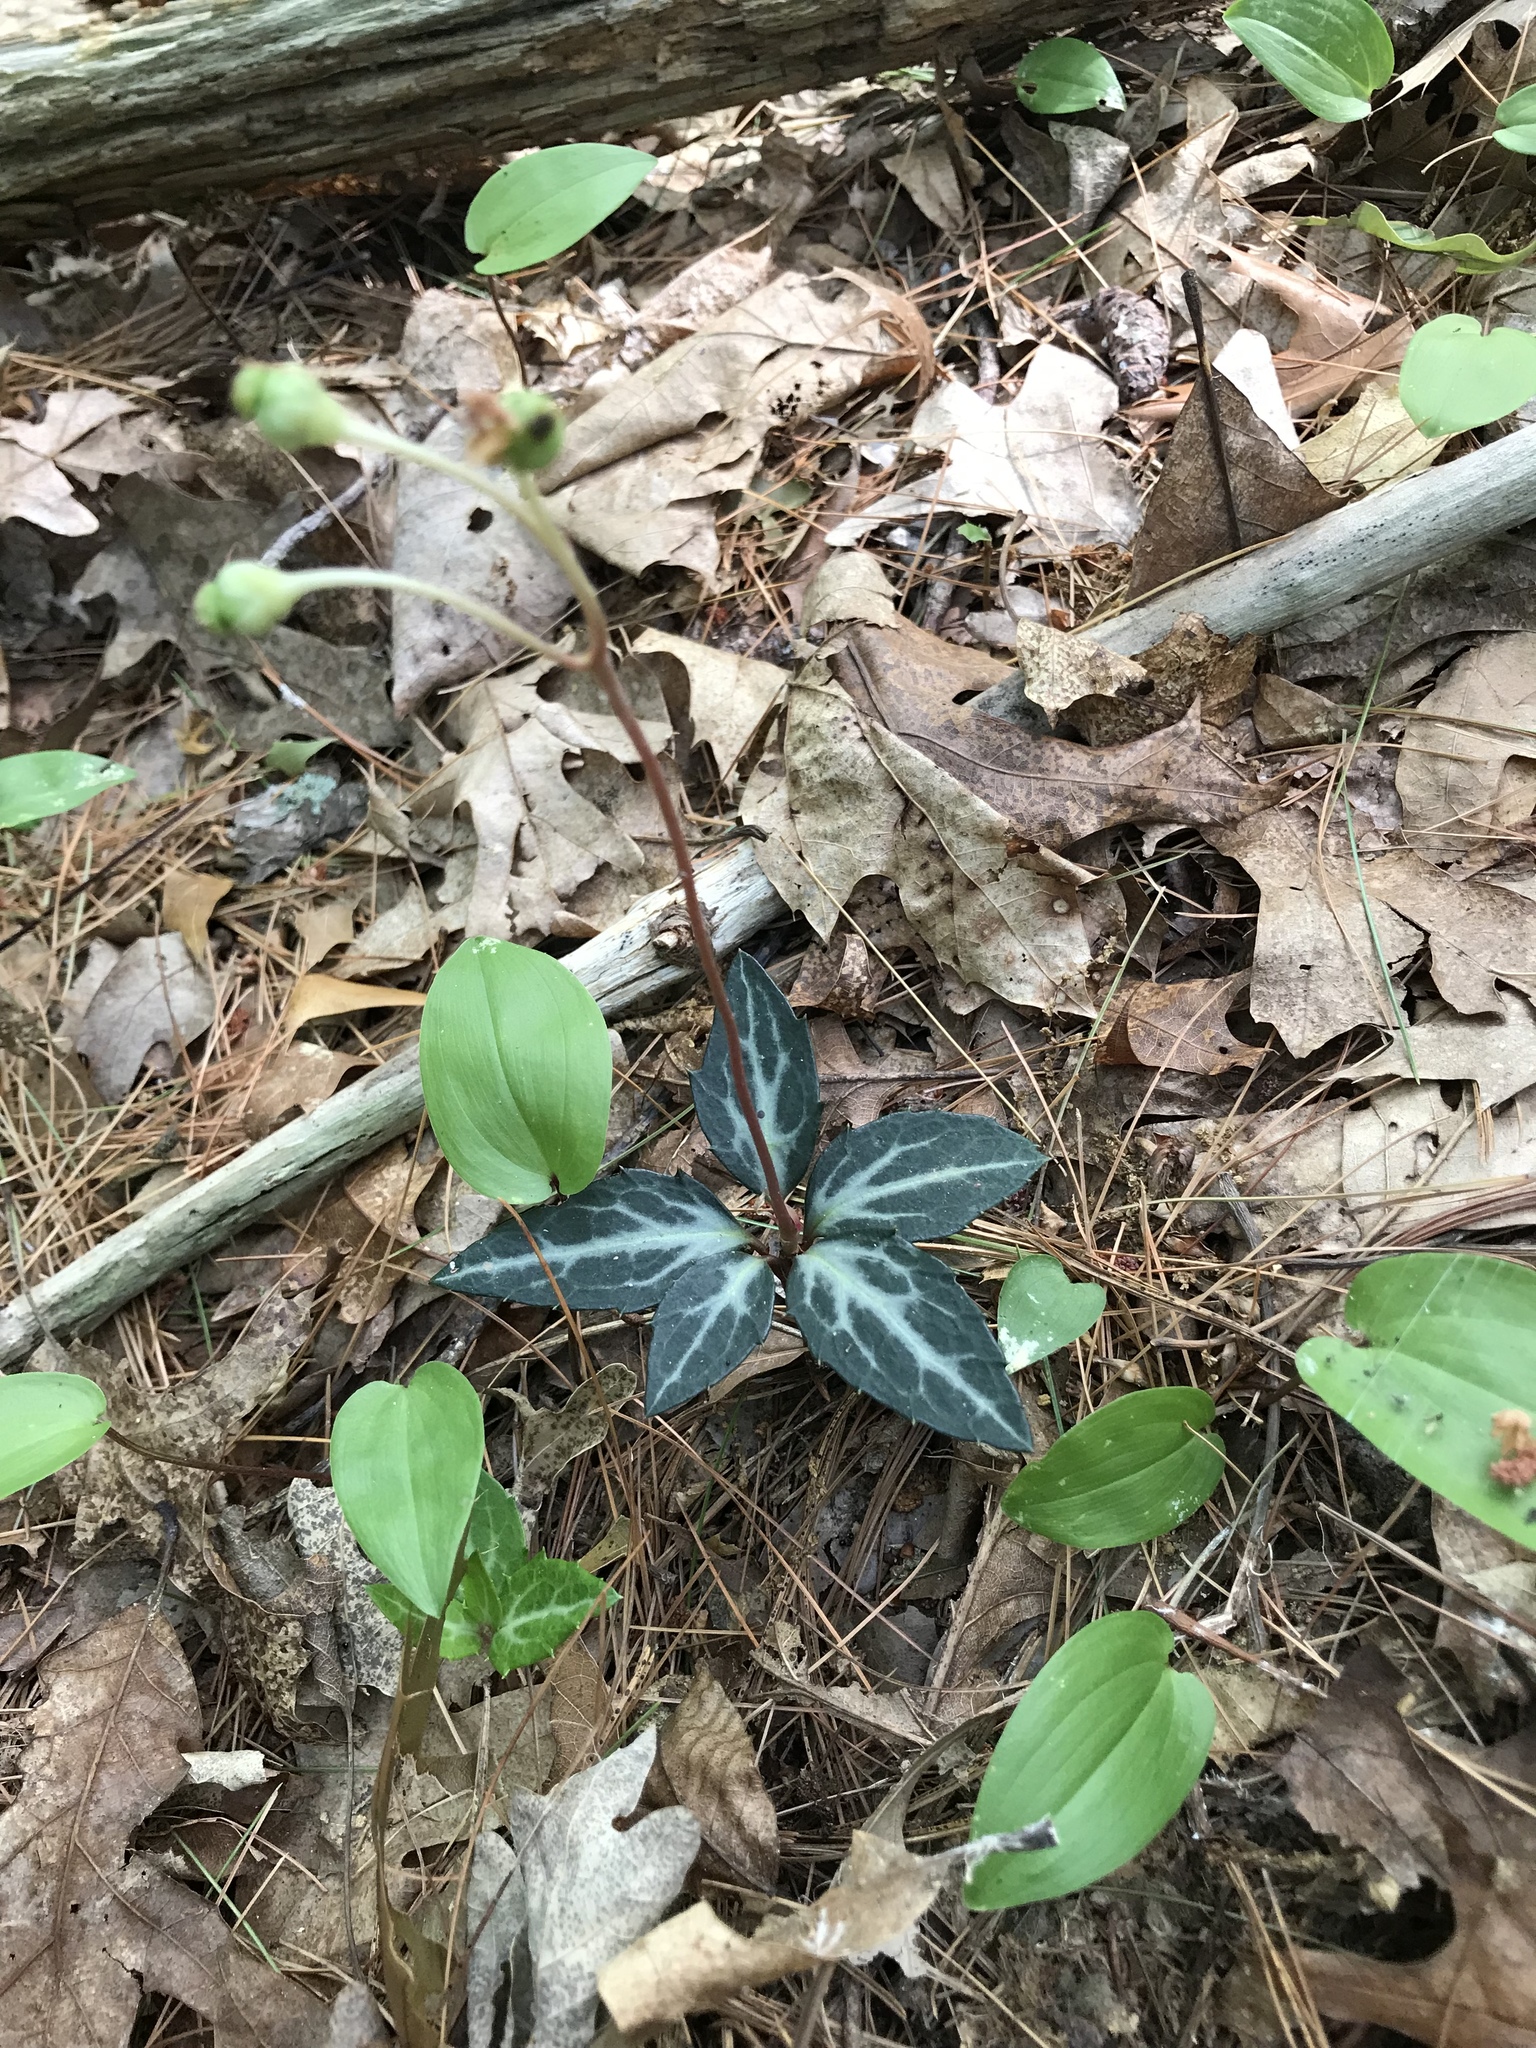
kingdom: Plantae
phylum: Tracheophyta
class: Magnoliopsida
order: Ericales
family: Ericaceae
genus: Chimaphila
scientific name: Chimaphila maculata
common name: Spotted pipsissewa
